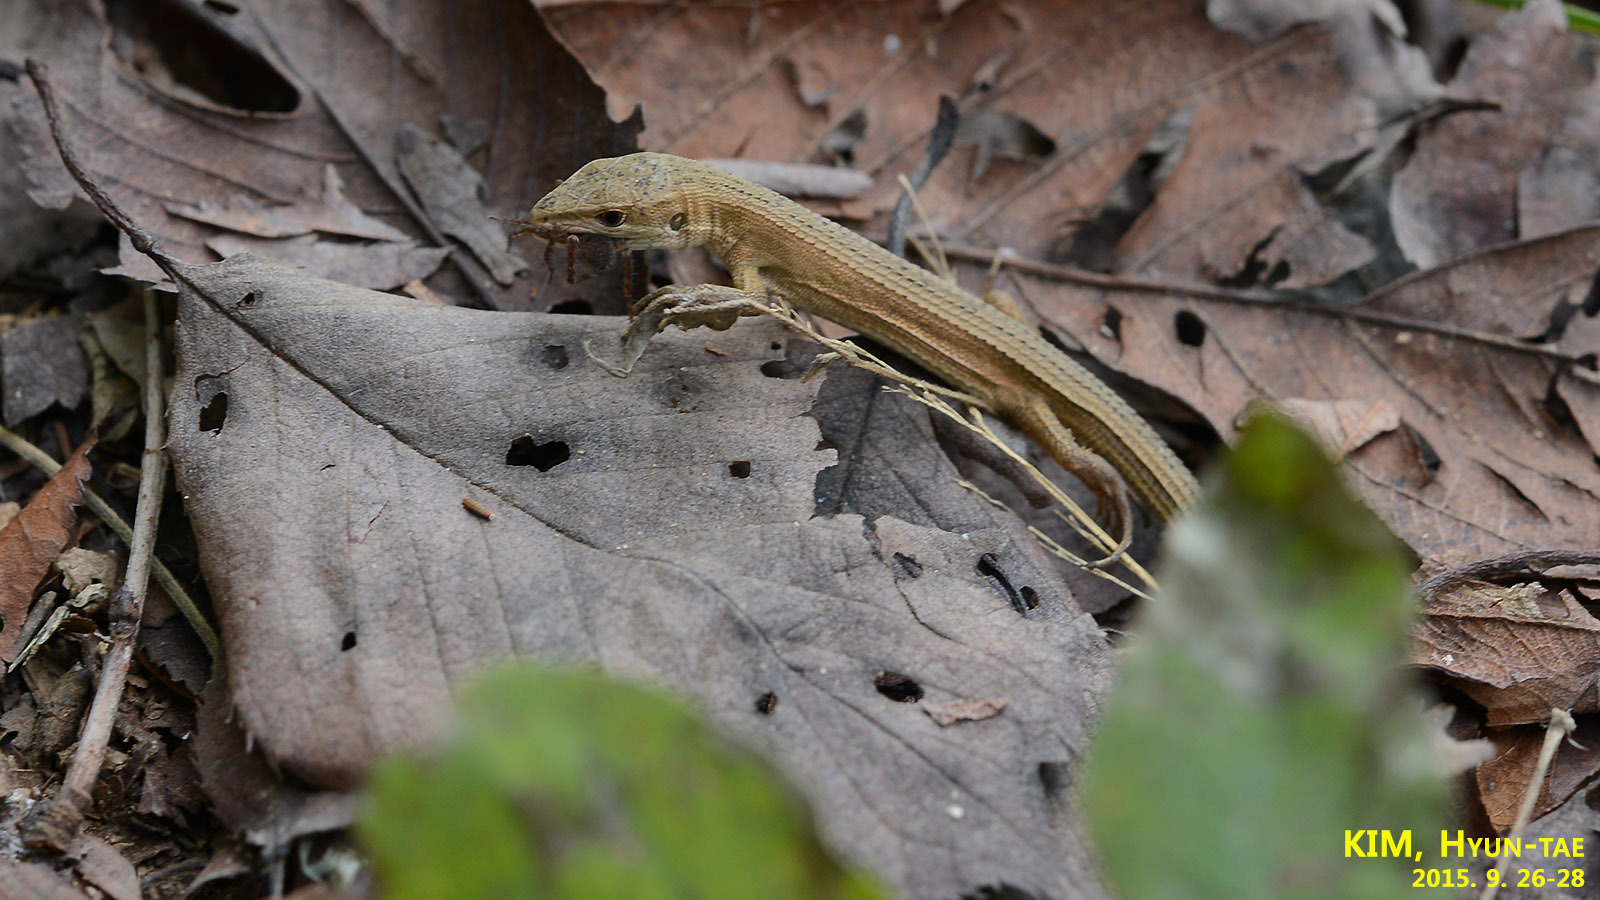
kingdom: Animalia
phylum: Chordata
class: Squamata
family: Lacertidae
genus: Takydromus
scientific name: Takydromus wolteri
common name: Mountain grass lizard
